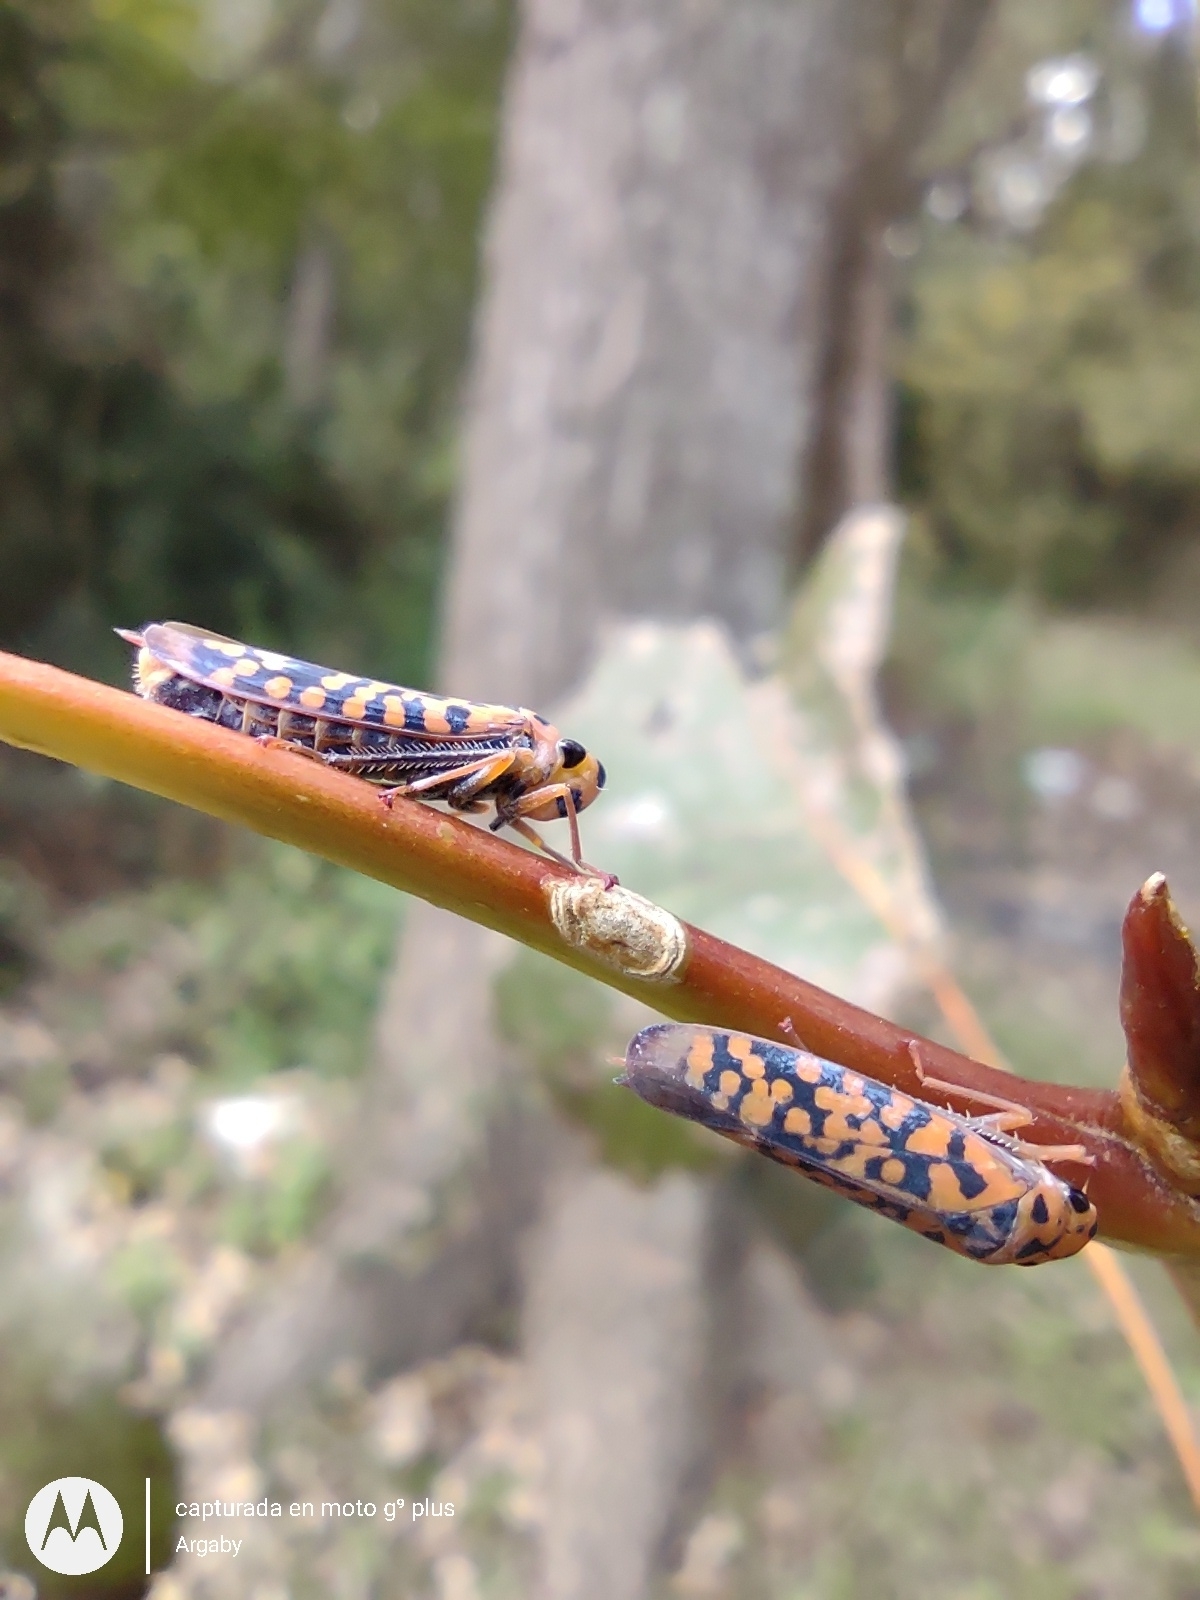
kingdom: Animalia
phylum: Arthropoda
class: Insecta
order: Hemiptera
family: Cicadellidae
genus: Pawiloma
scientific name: Pawiloma victima
